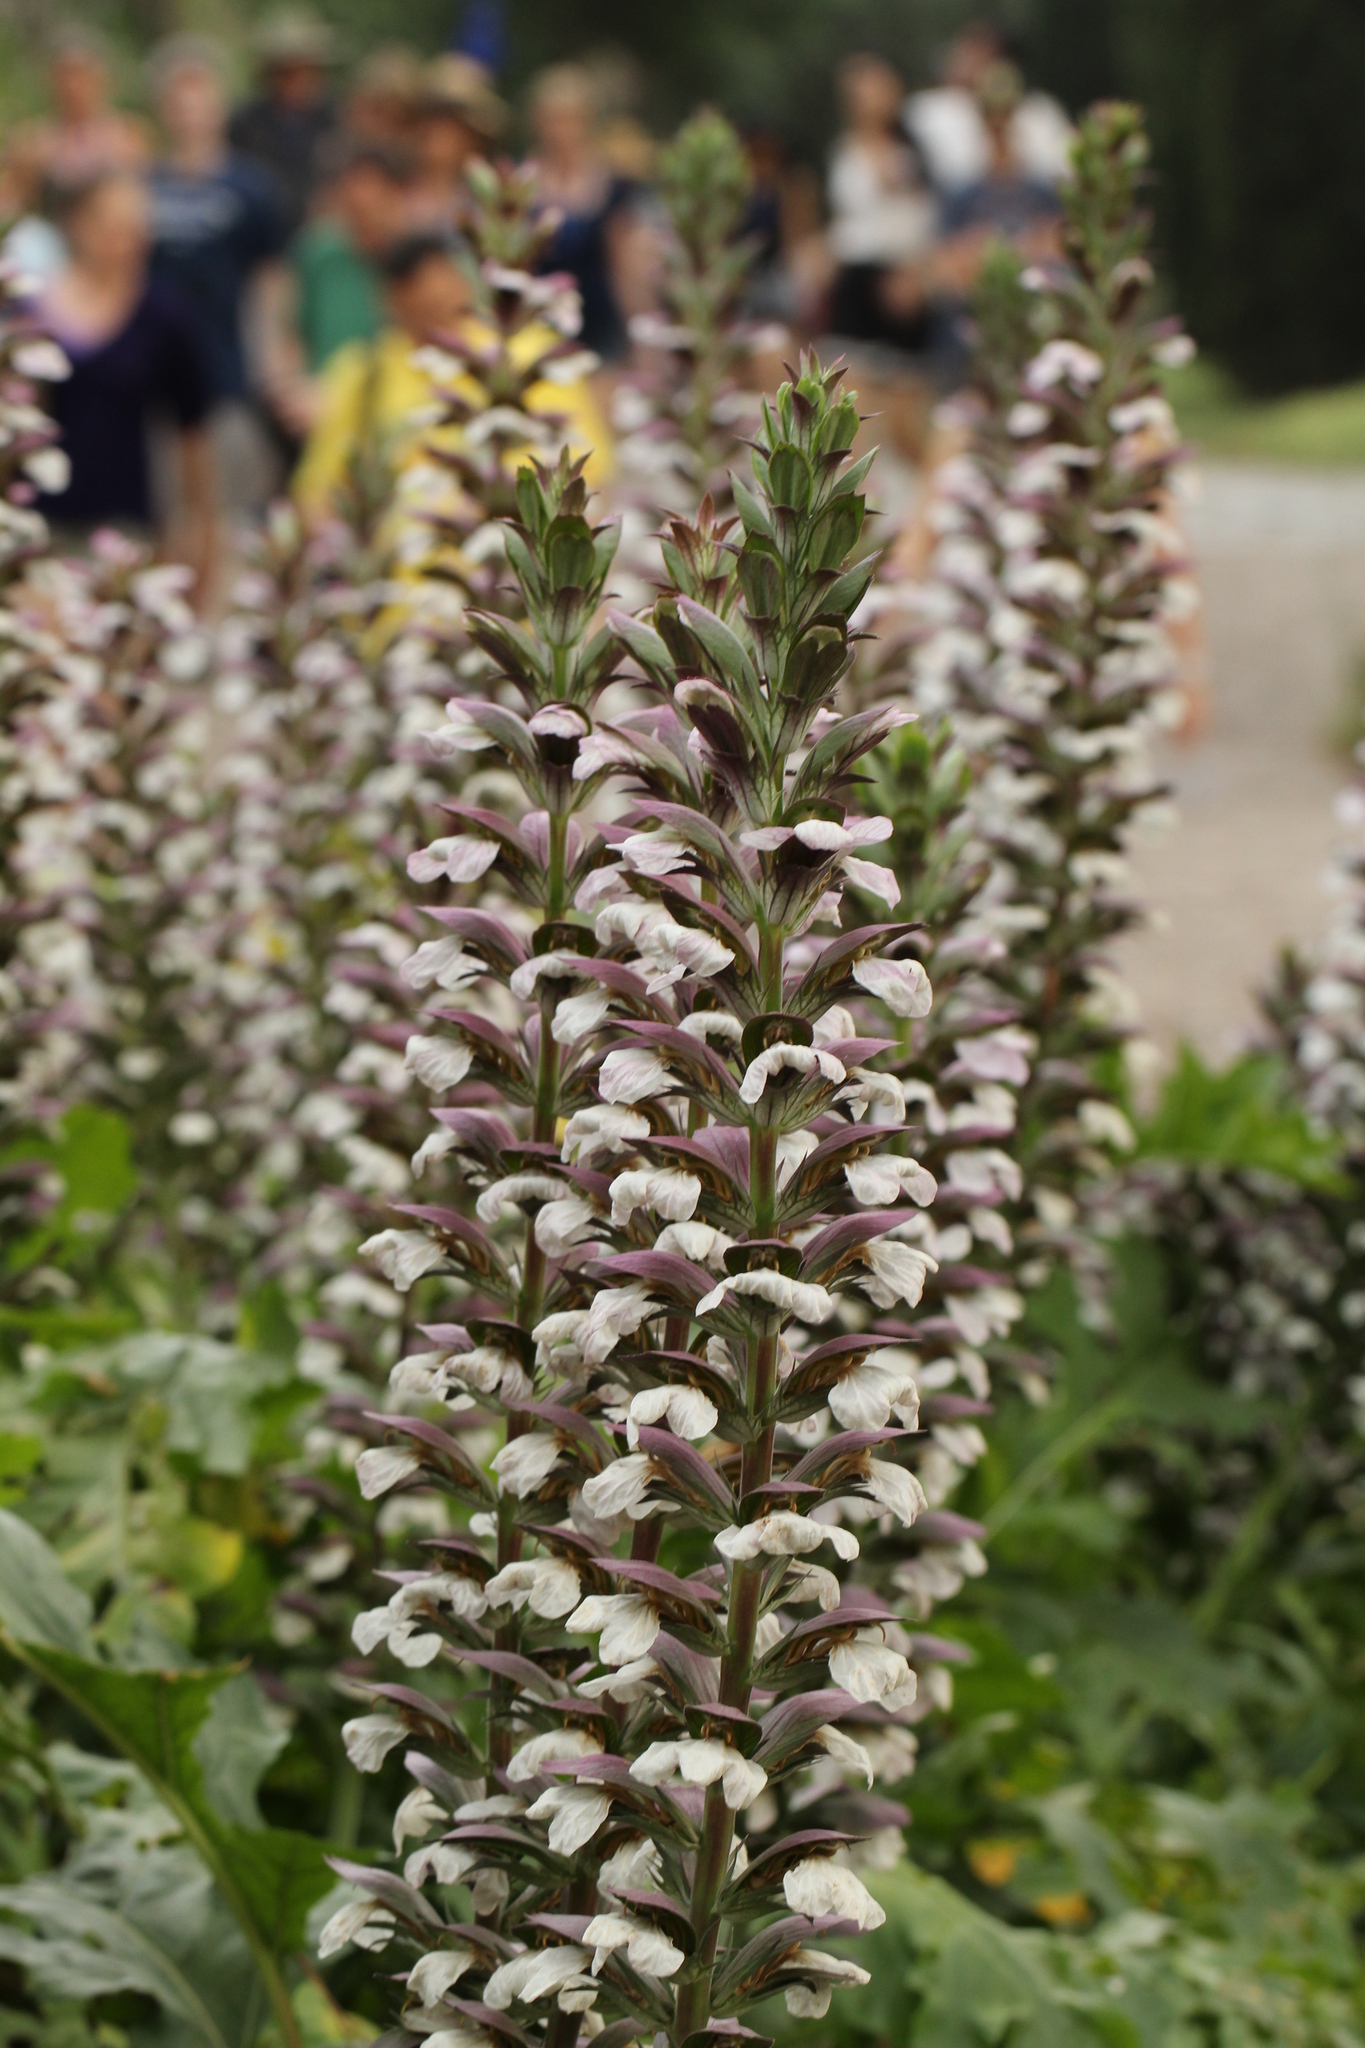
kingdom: Plantae
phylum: Tracheophyta
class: Magnoliopsida
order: Lamiales
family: Acanthaceae
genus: Acanthus
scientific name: Acanthus mollis
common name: Bear's-breech
